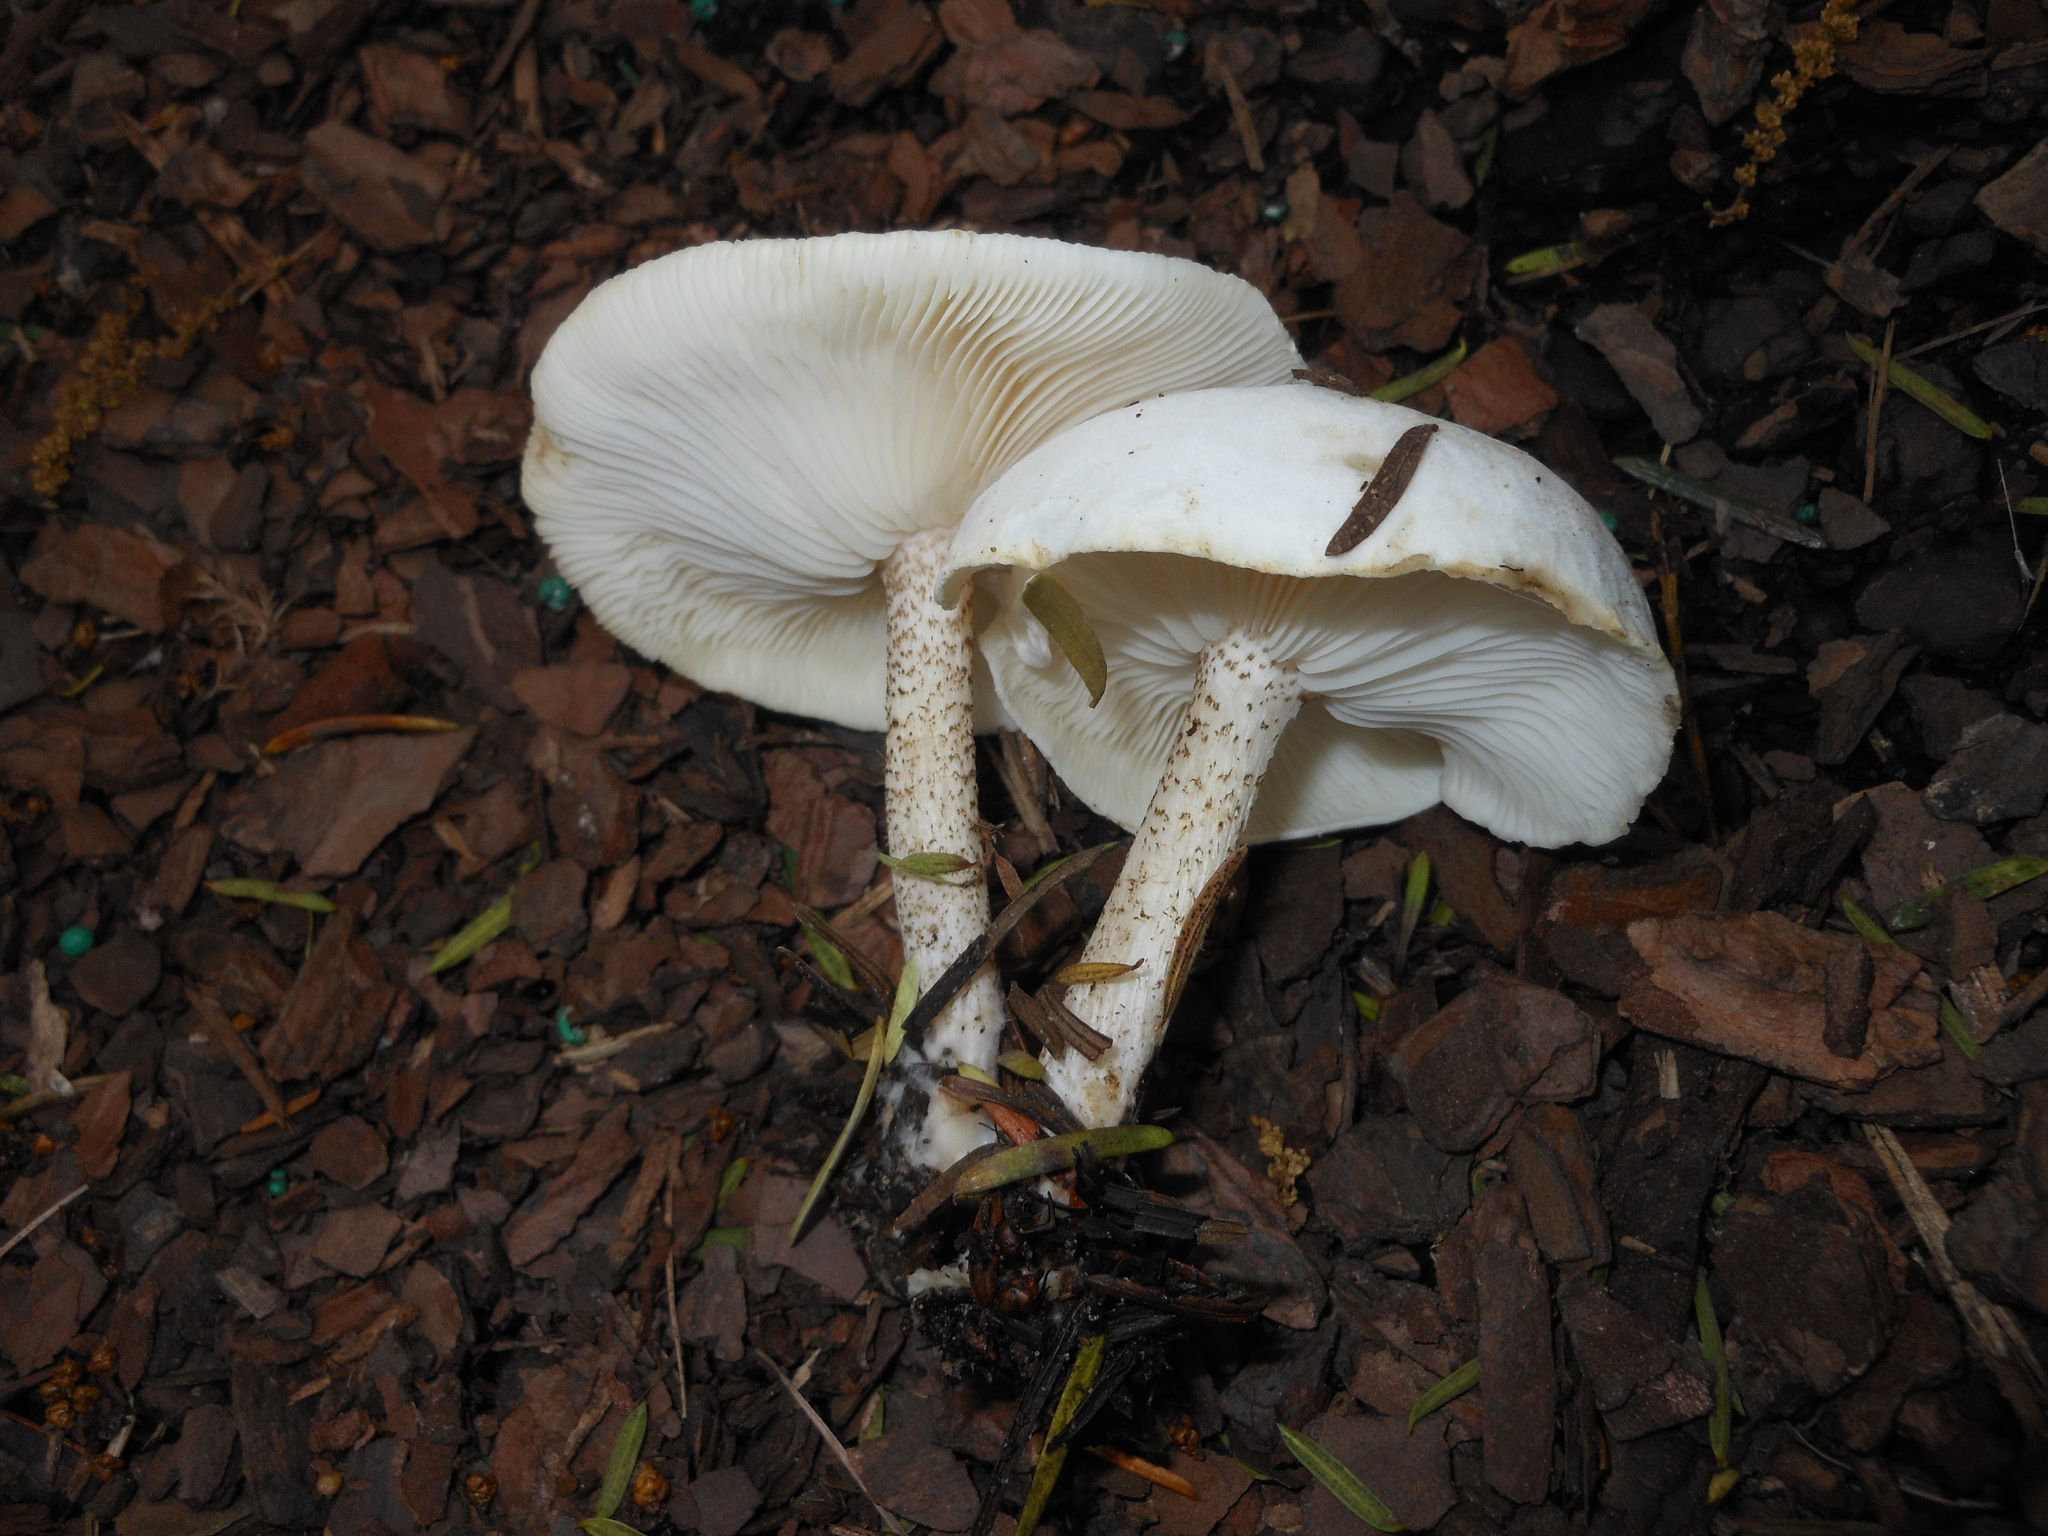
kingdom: Fungi
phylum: Basidiomycota
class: Agaricomycetes
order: Agaricales
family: Tricholomataceae
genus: Melanoleuca
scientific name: Melanoleuca verrucipes
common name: Warty cavalier
